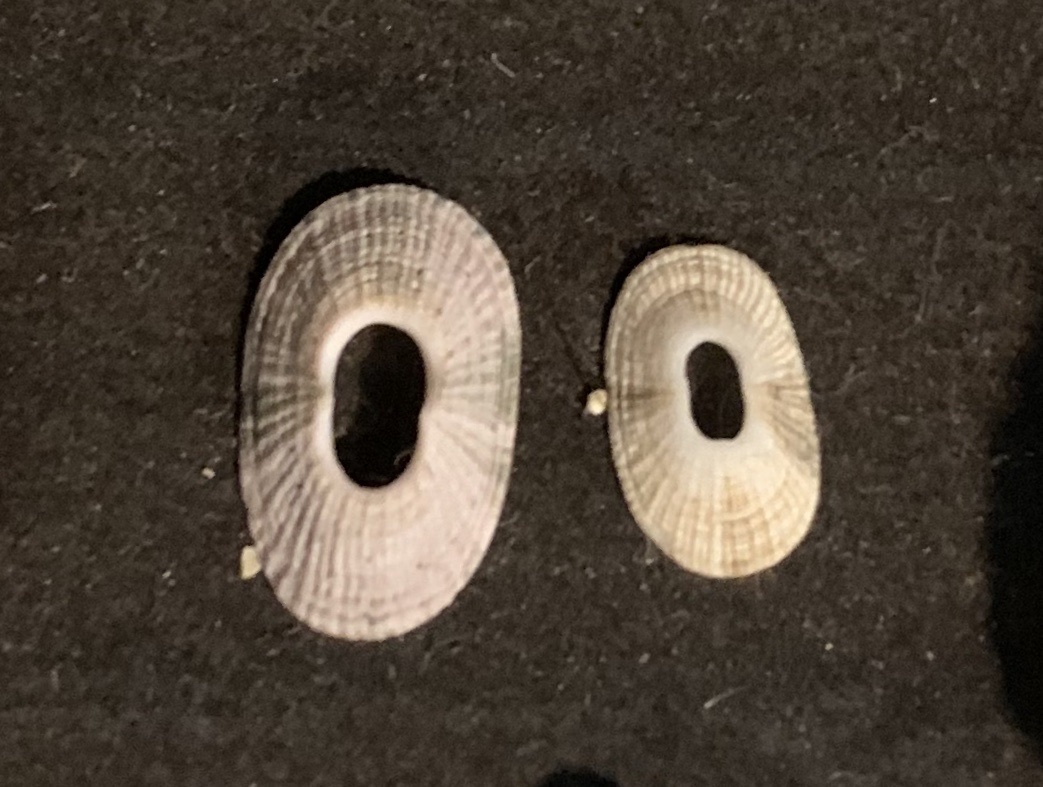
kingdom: Animalia
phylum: Mollusca
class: Gastropoda
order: Lepetellida
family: Fissurellidae
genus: Fissurellidea
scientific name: Fissurellidea bimaculata
